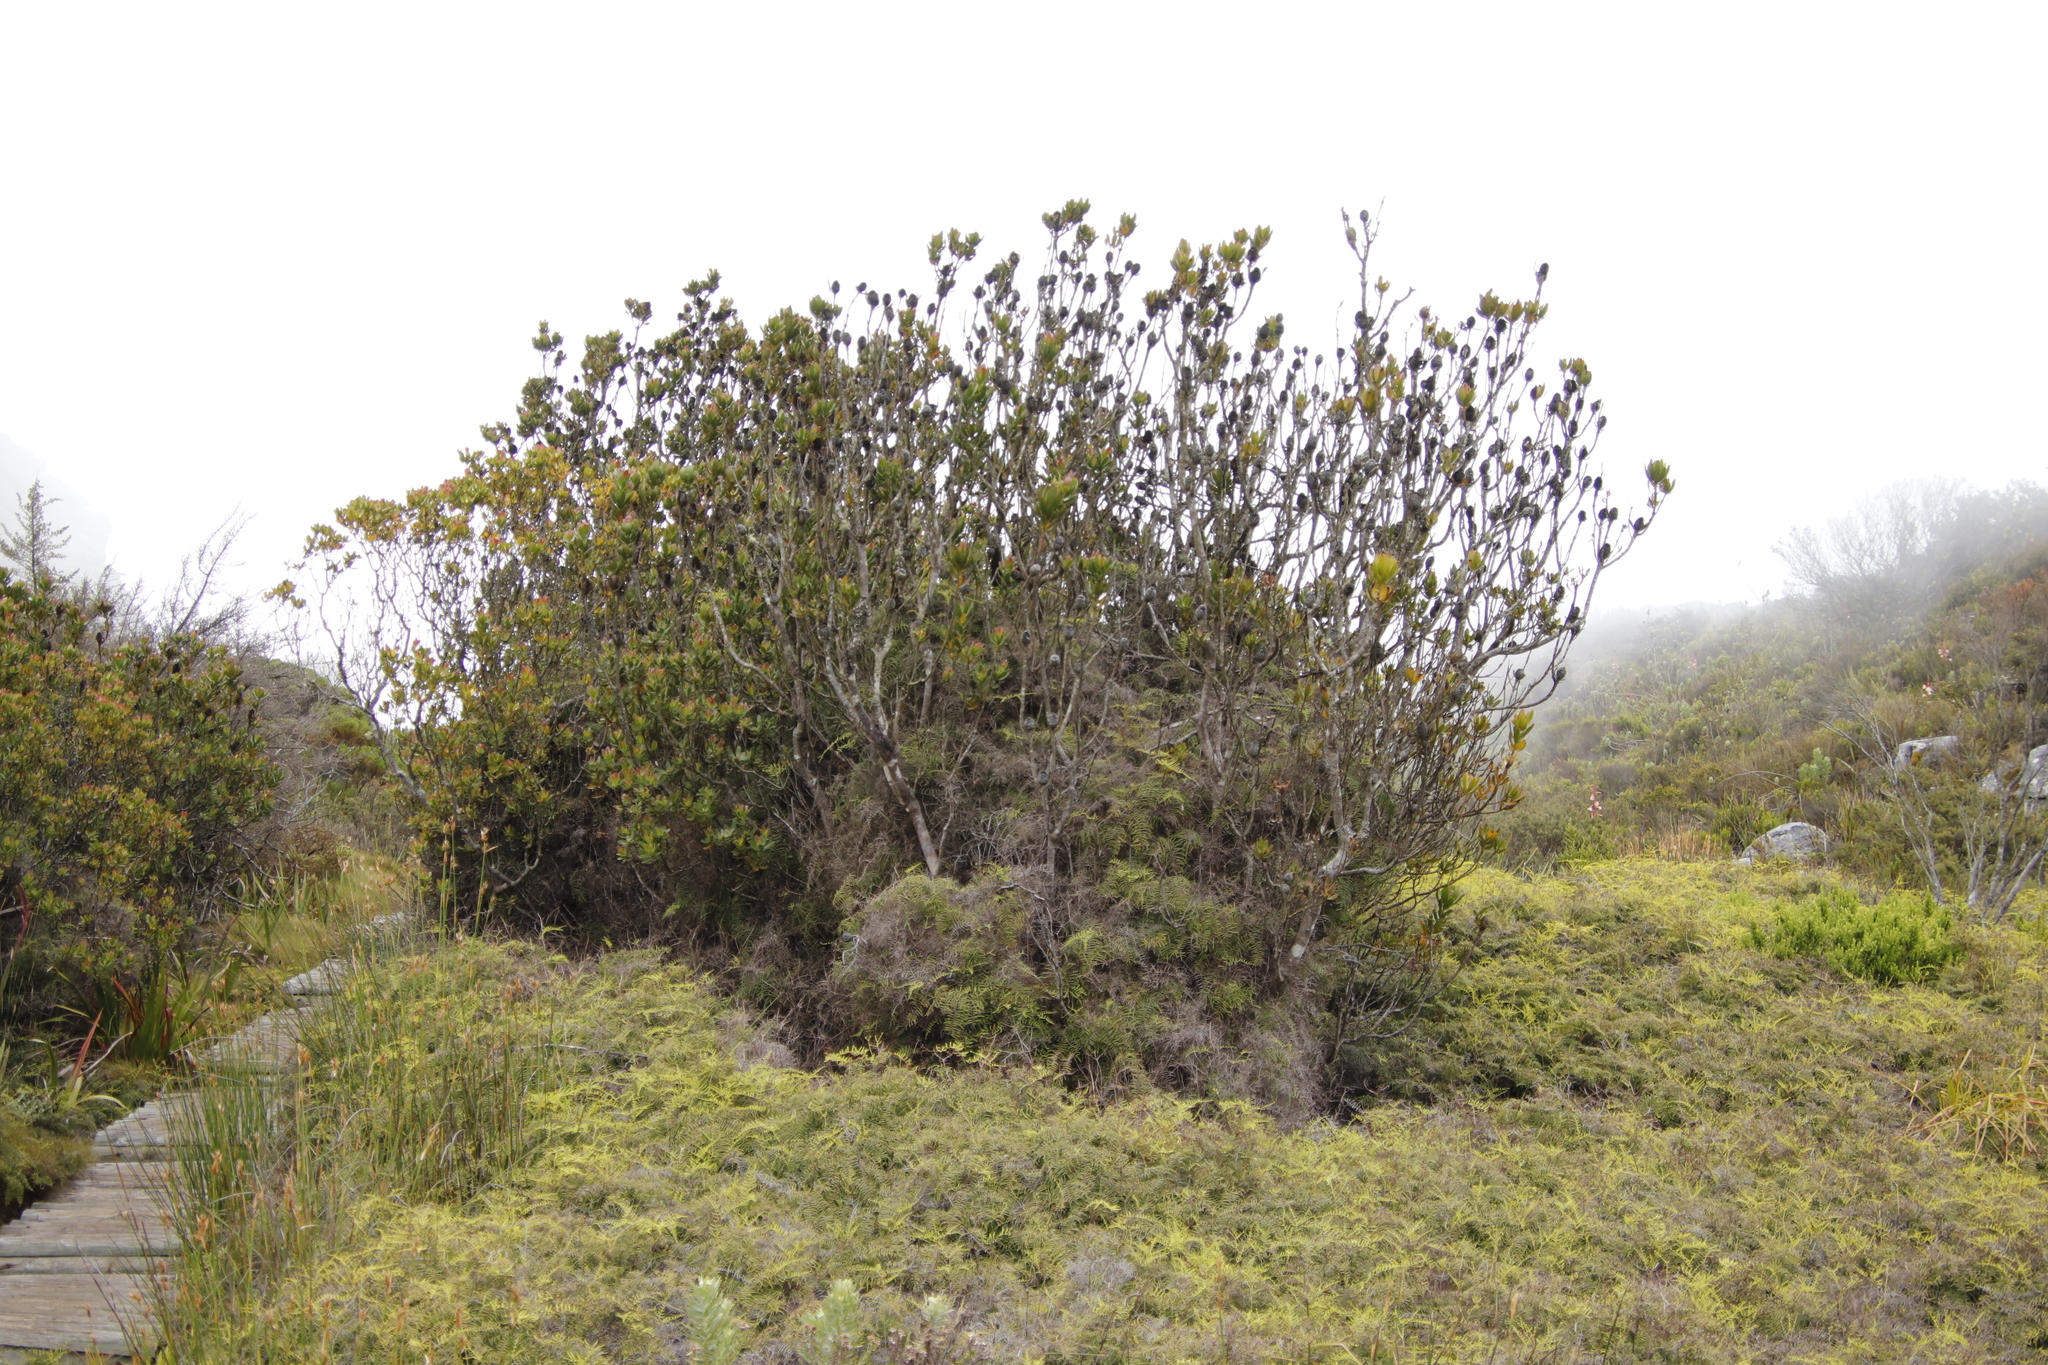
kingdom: Plantae
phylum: Tracheophyta
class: Magnoliopsida
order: Proteales
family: Proteaceae
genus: Leucadendron
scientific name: Leucadendron strobilinum
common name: Mountain rose
